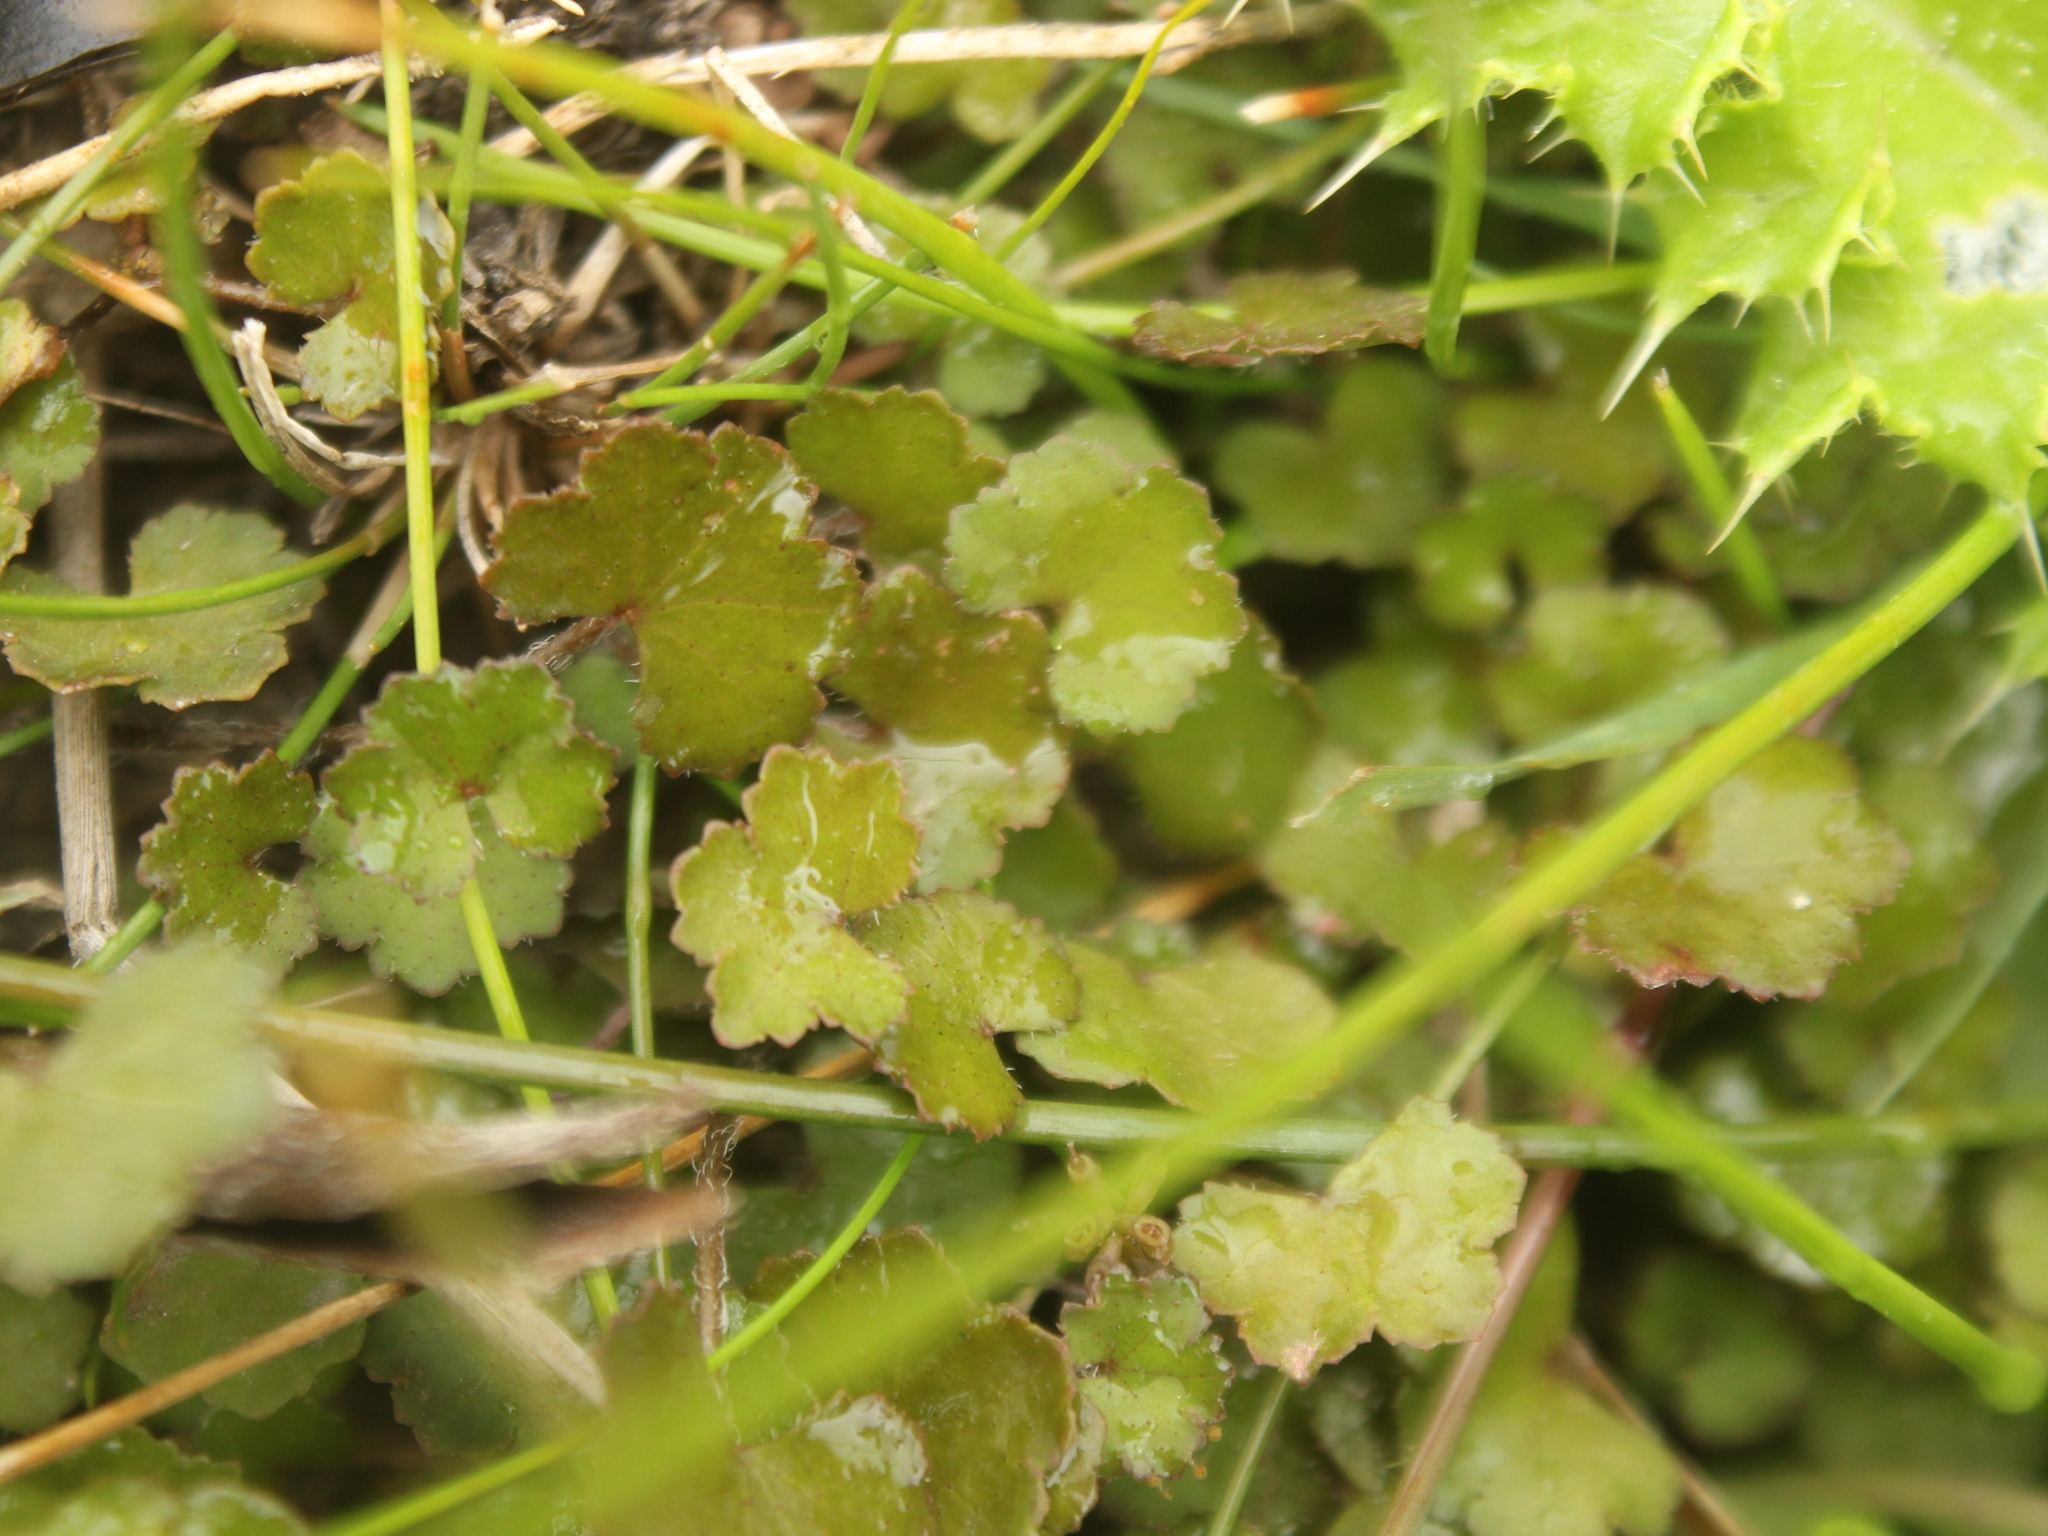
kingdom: Plantae
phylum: Tracheophyta
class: Magnoliopsida
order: Apiales
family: Araliaceae
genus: Hydrocotyle
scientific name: Hydrocotyle novae-zeelandiae
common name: New zealand pennywort
